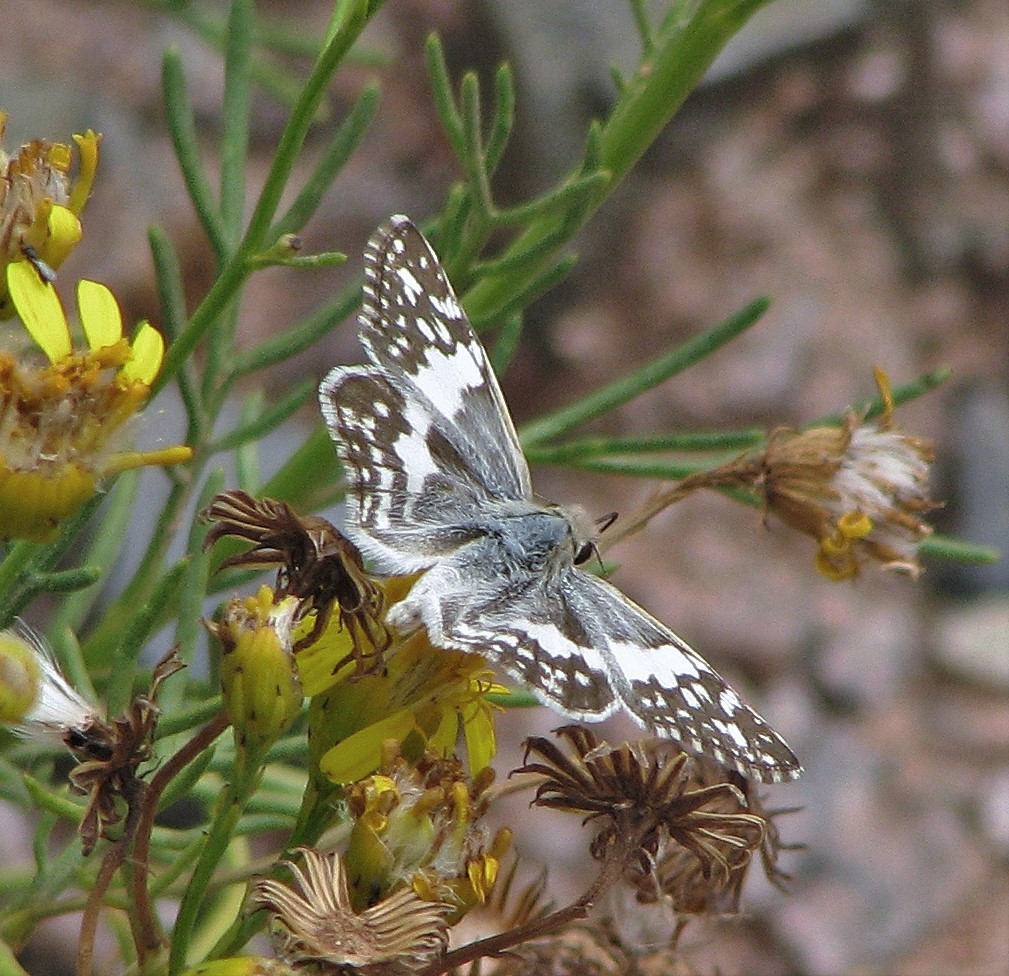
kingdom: Animalia
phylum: Arthropoda
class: Insecta
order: Lepidoptera
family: Hesperiidae
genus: Heliopyrgus
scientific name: Heliopyrgus domicella
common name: Erichson's white skipper
